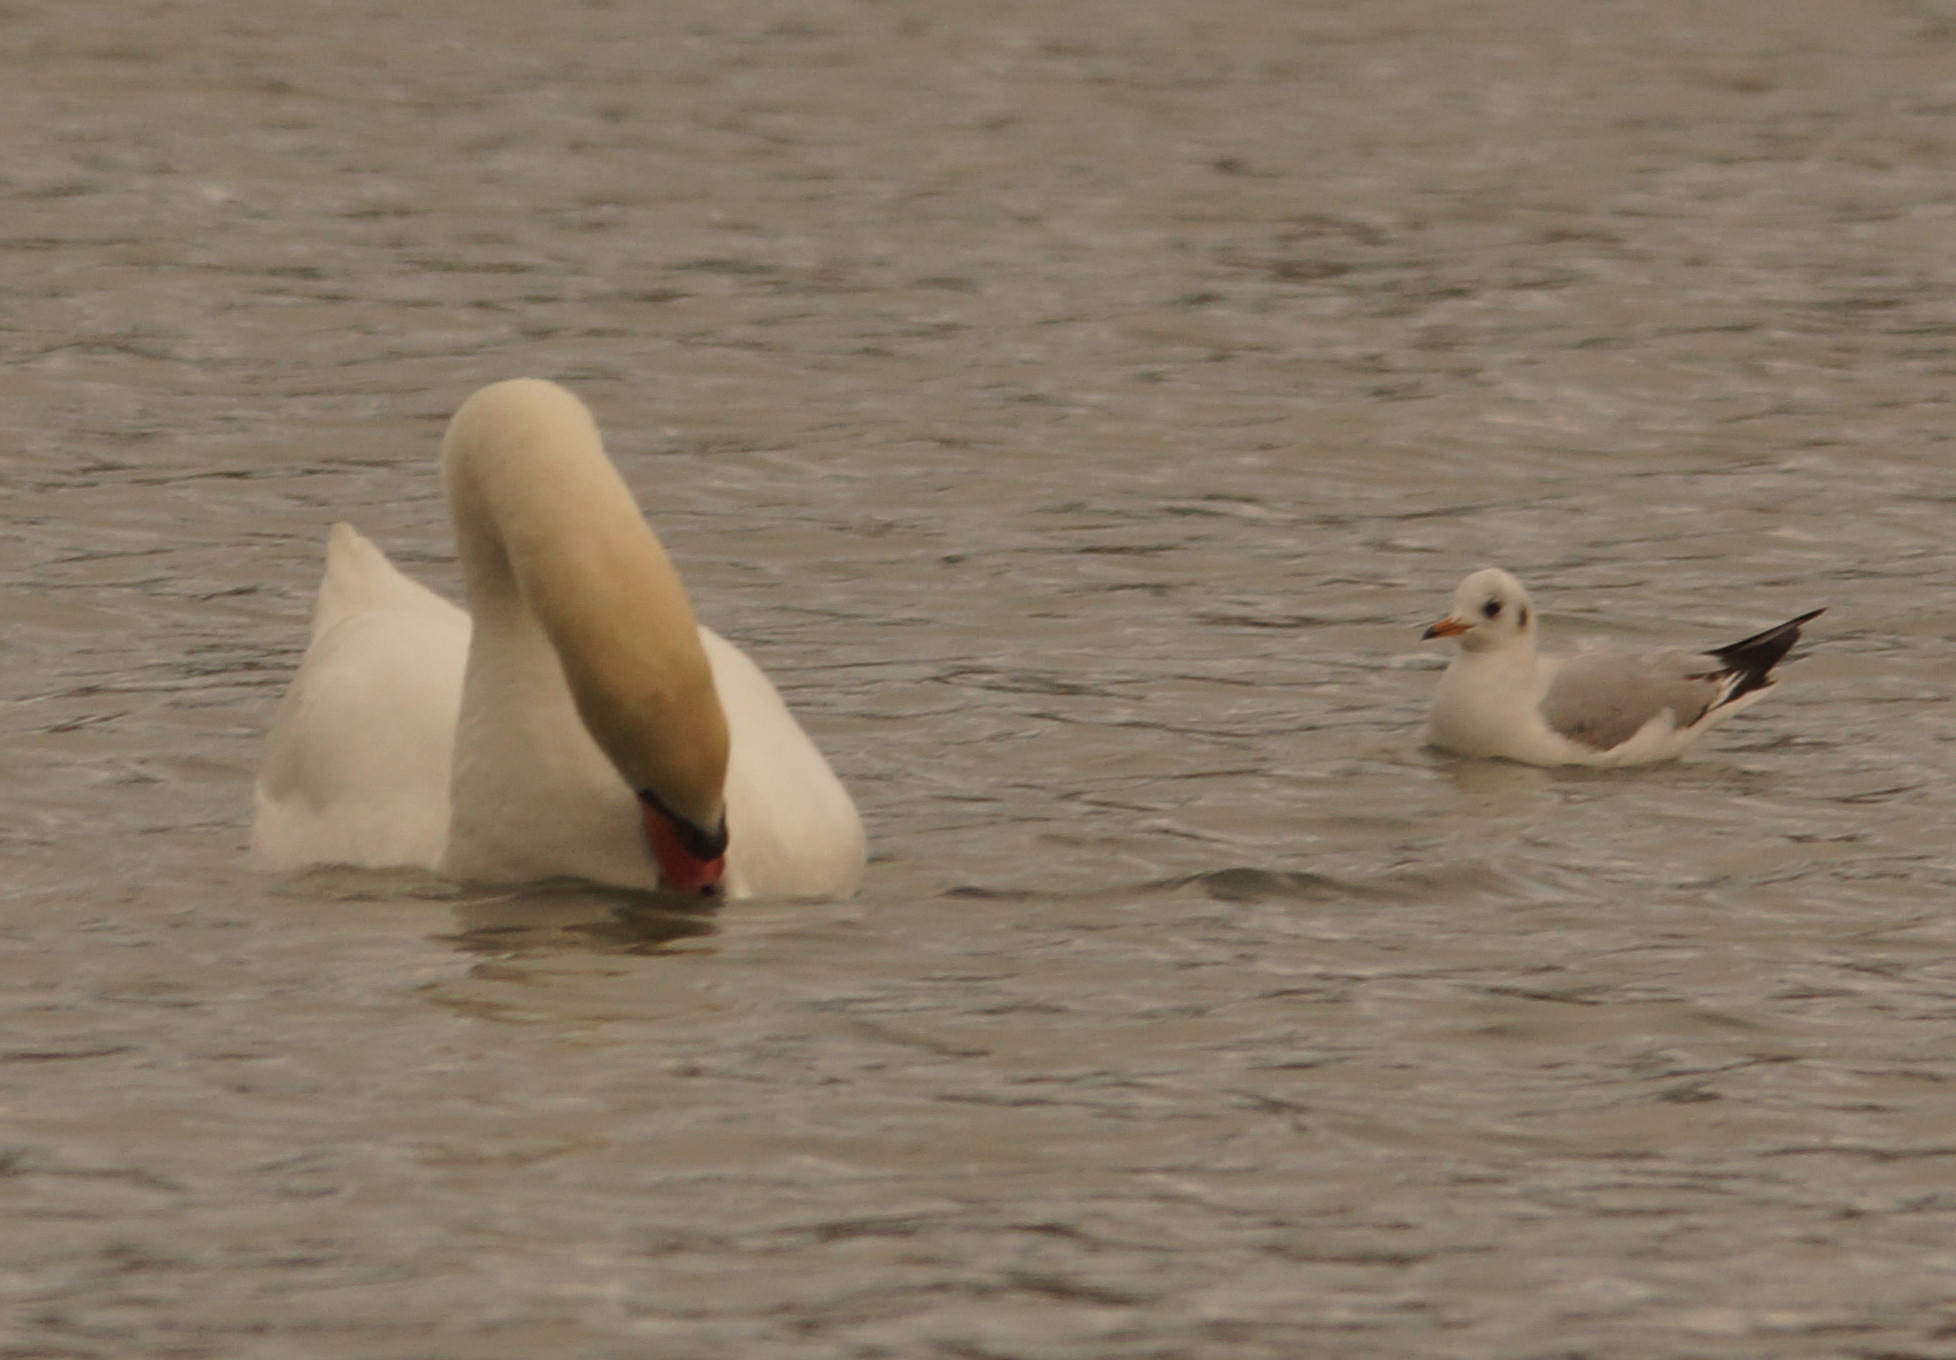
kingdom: Animalia
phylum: Chordata
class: Aves
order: Charadriiformes
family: Laridae
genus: Chroicocephalus
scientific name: Chroicocephalus ridibundus
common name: Black-headed gull
